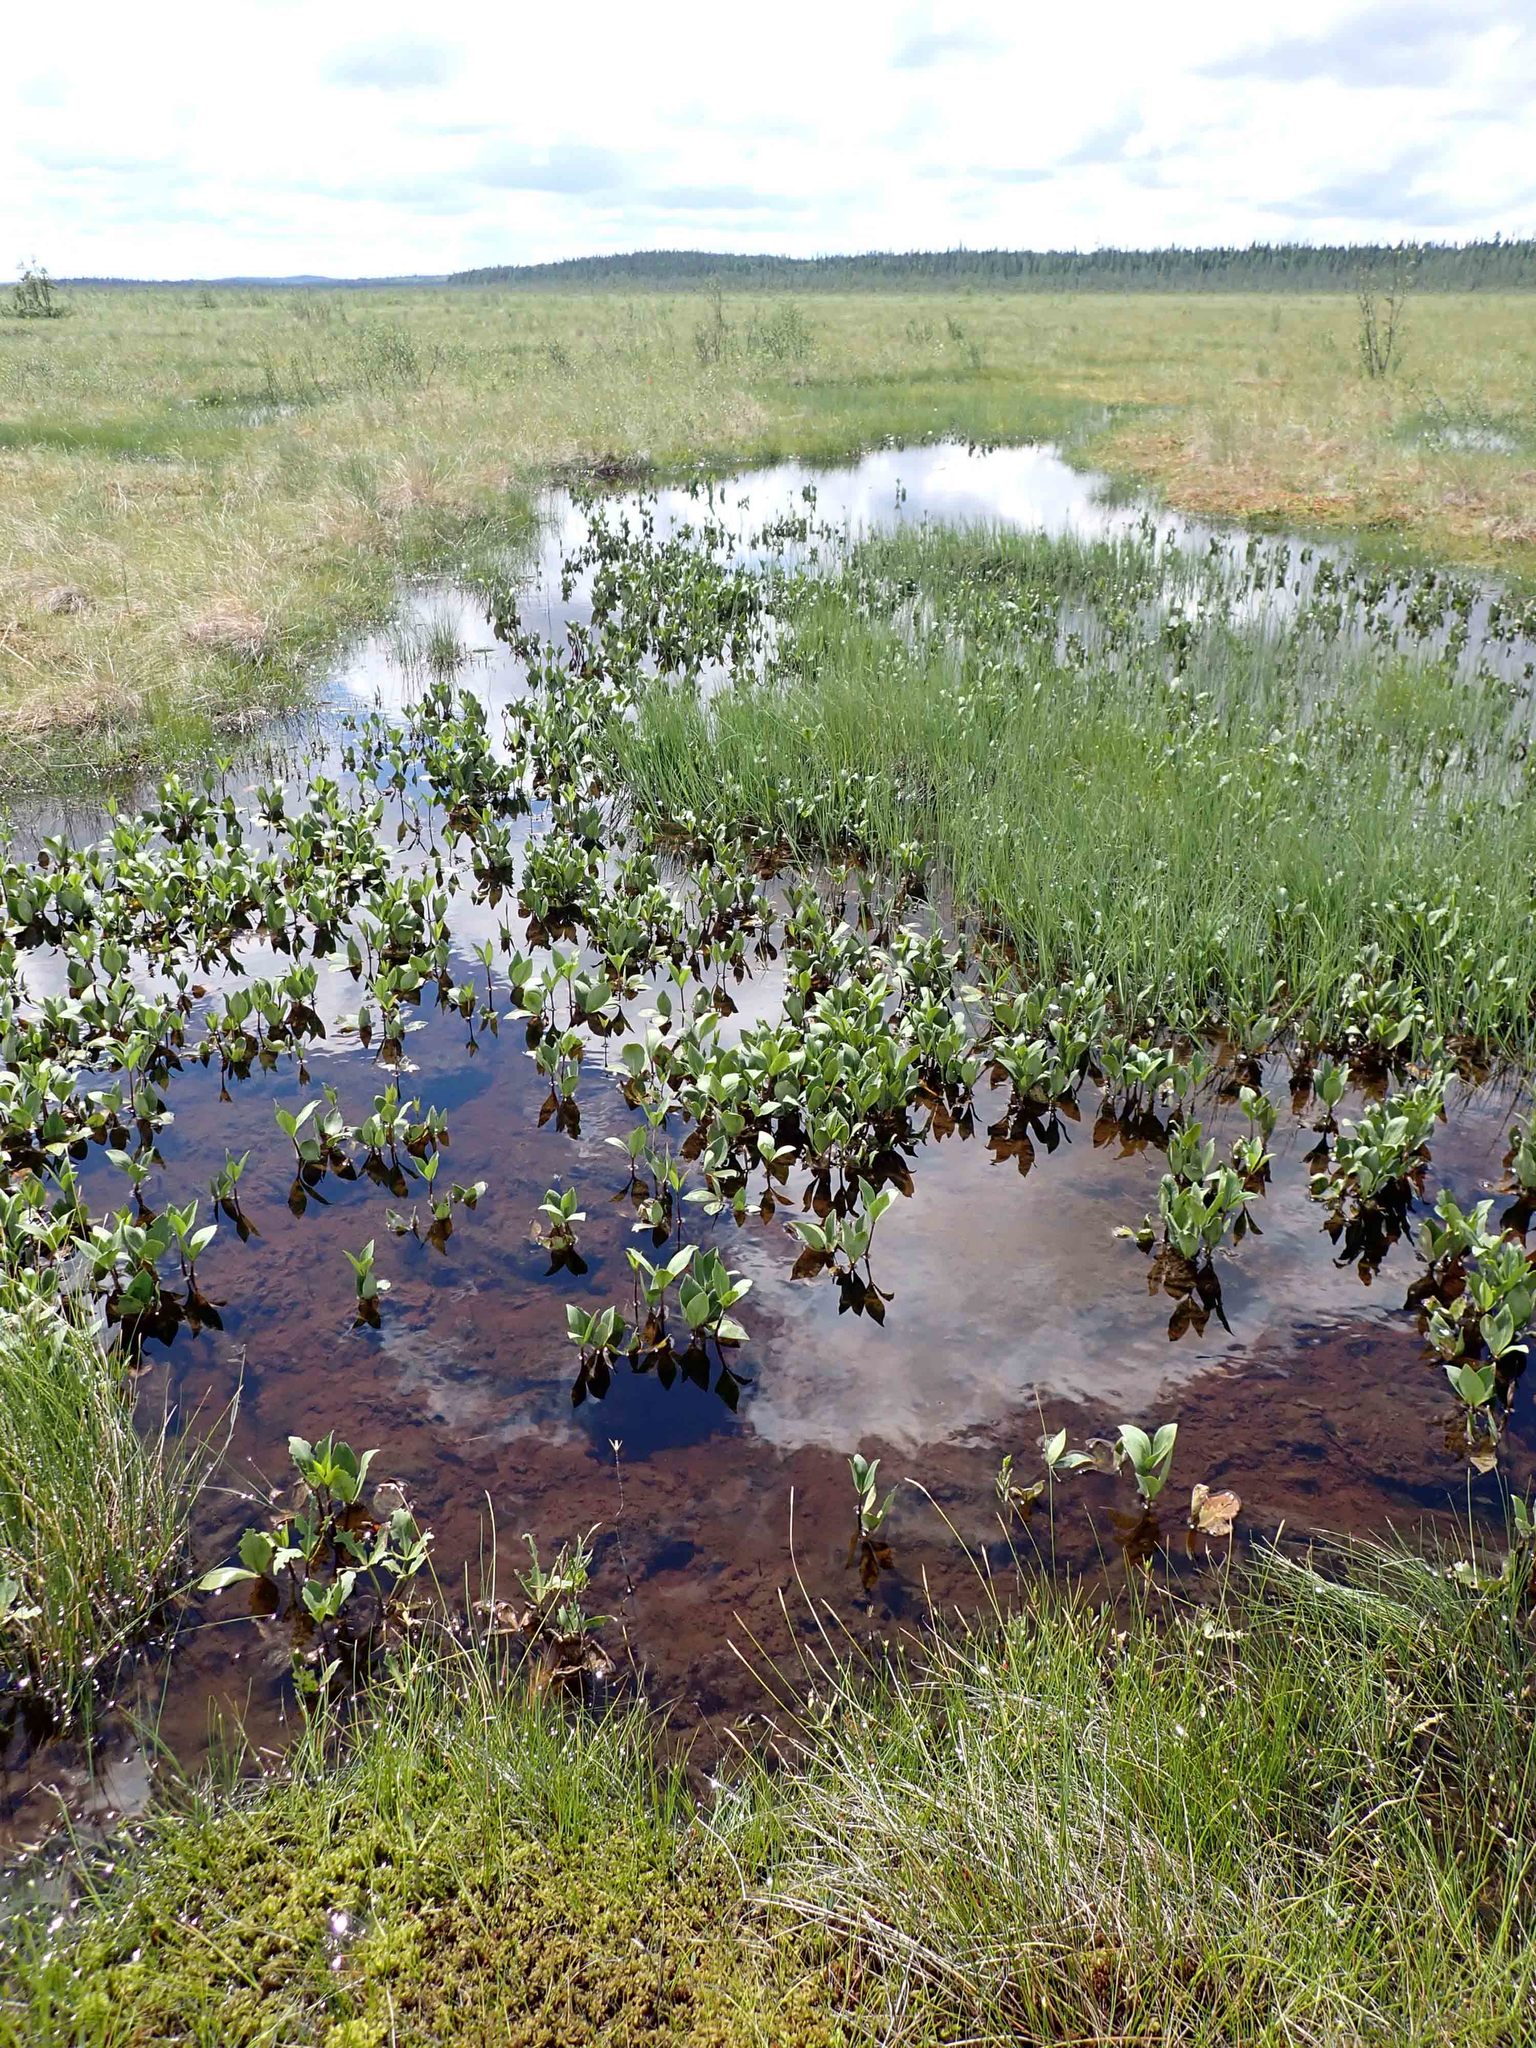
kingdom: Plantae
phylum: Tracheophyta
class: Magnoliopsida
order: Asterales
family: Menyanthaceae
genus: Menyanthes
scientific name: Menyanthes trifoliata
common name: Bogbean
